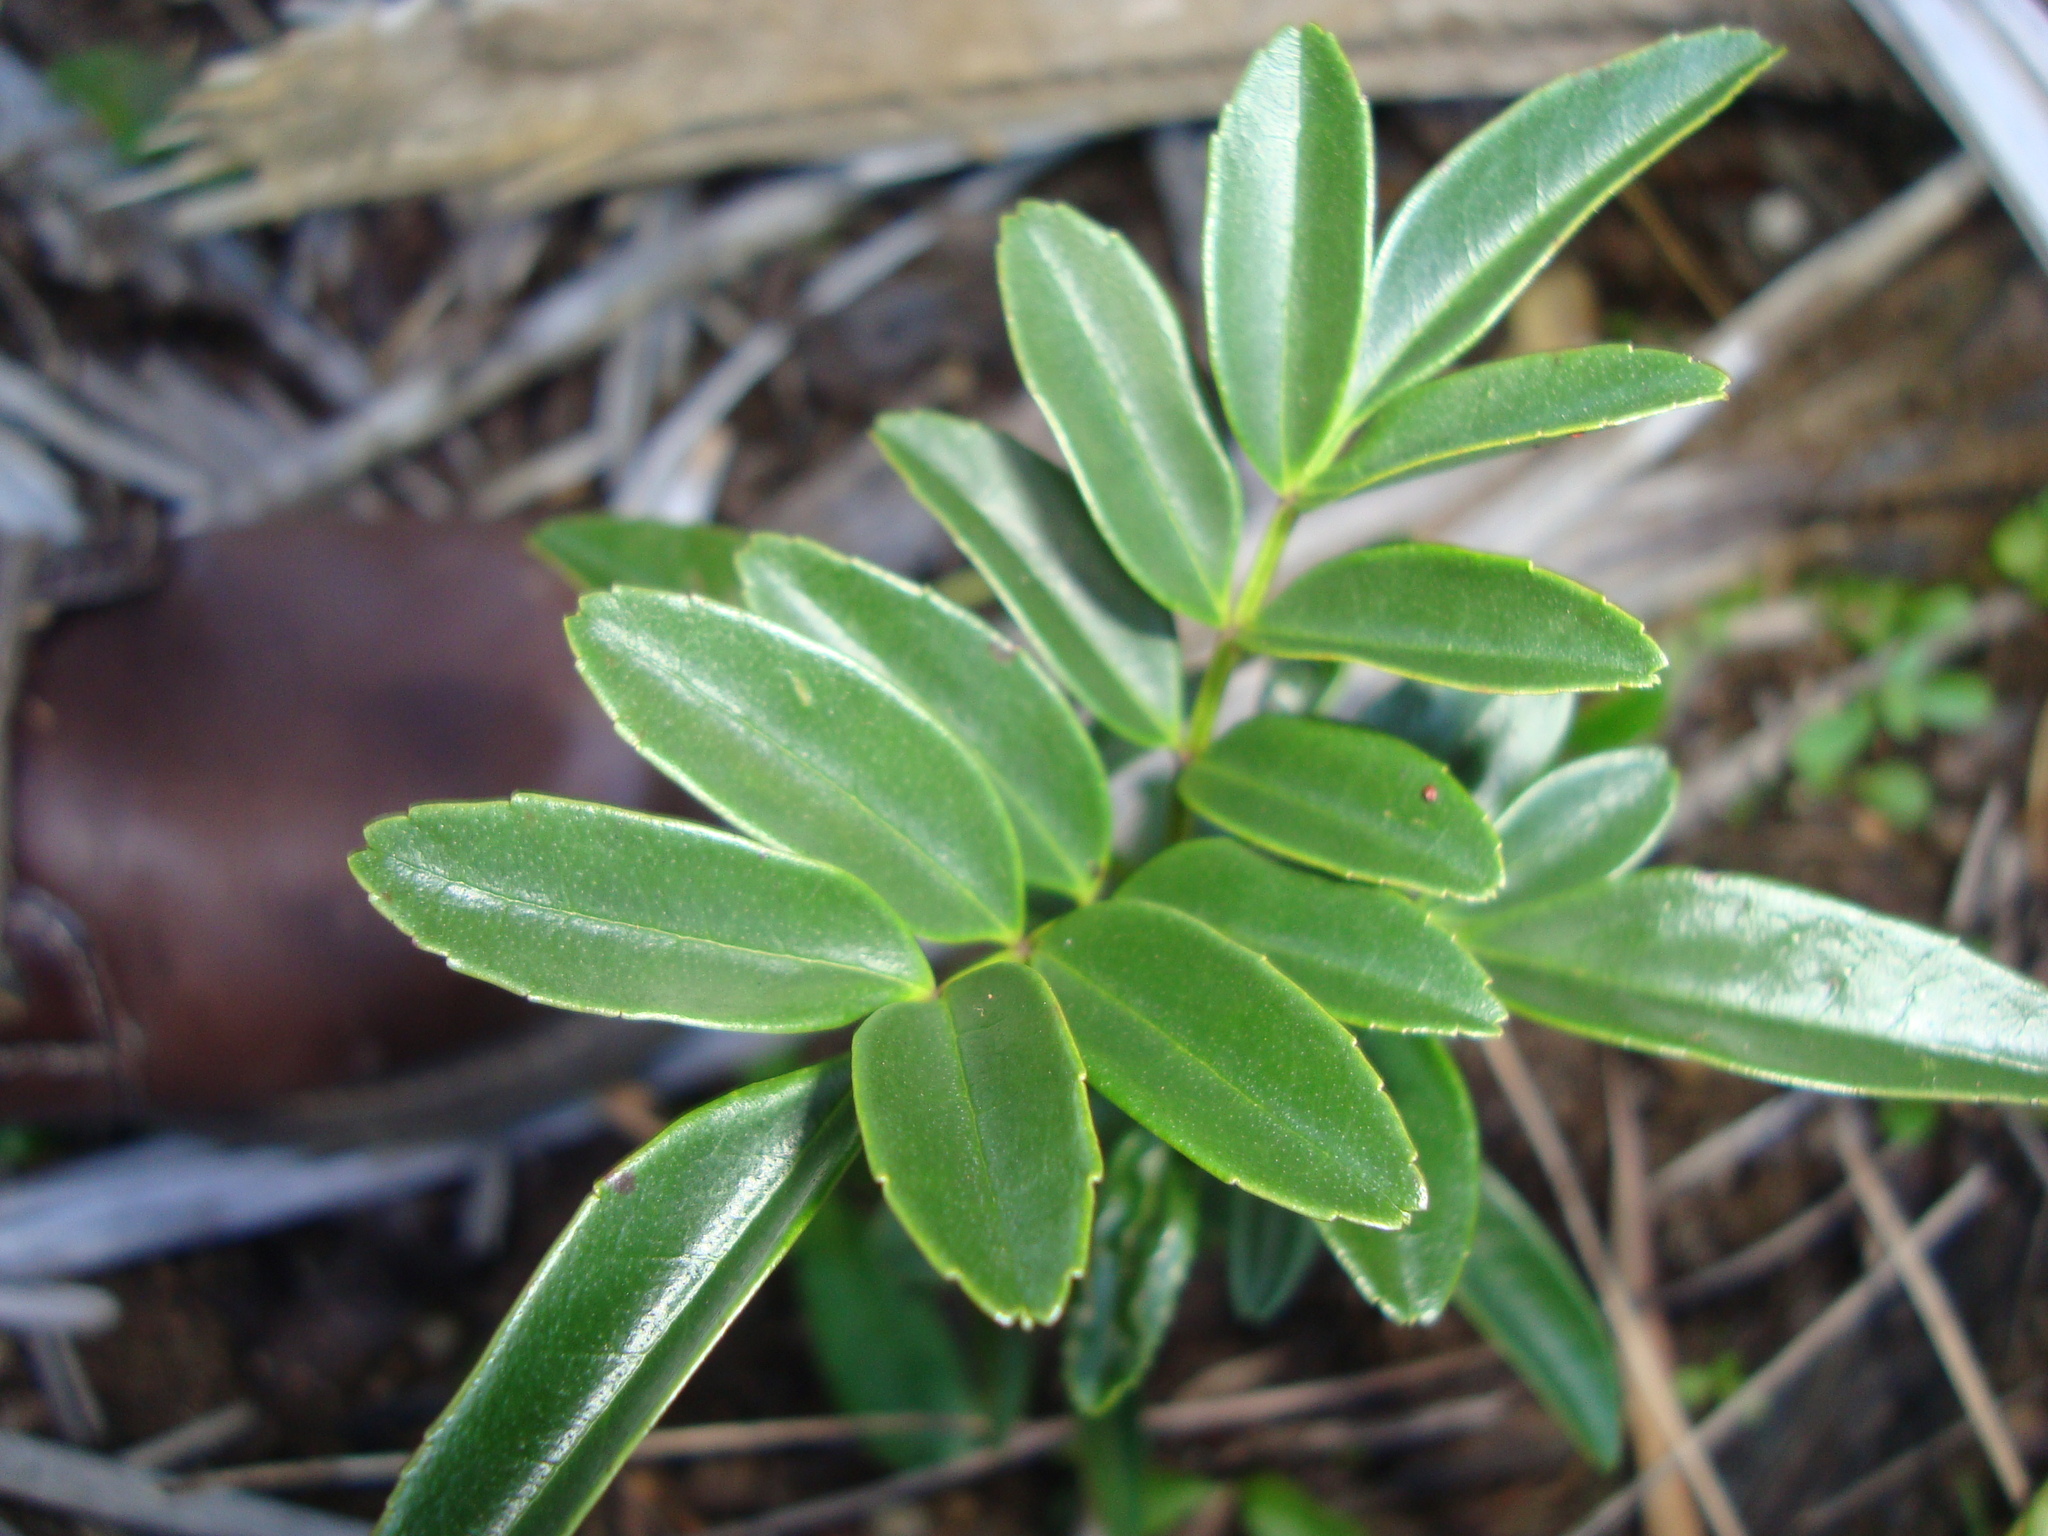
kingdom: Plantae
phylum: Tracheophyta
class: Magnoliopsida
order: Lamiales
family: Bignoniaceae
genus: Campsidium
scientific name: Campsidium valdivianum
